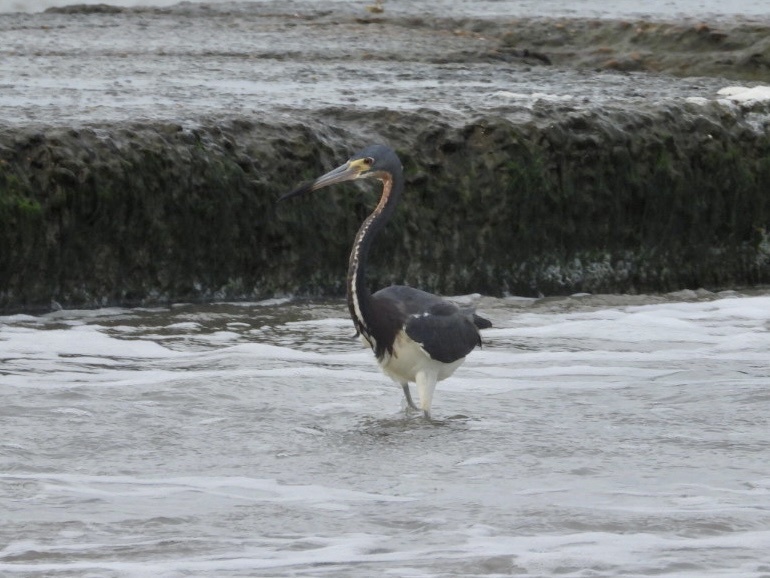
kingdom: Animalia
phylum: Chordata
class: Aves
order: Pelecaniformes
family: Ardeidae
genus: Egretta
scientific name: Egretta tricolor
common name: Tricolored heron
